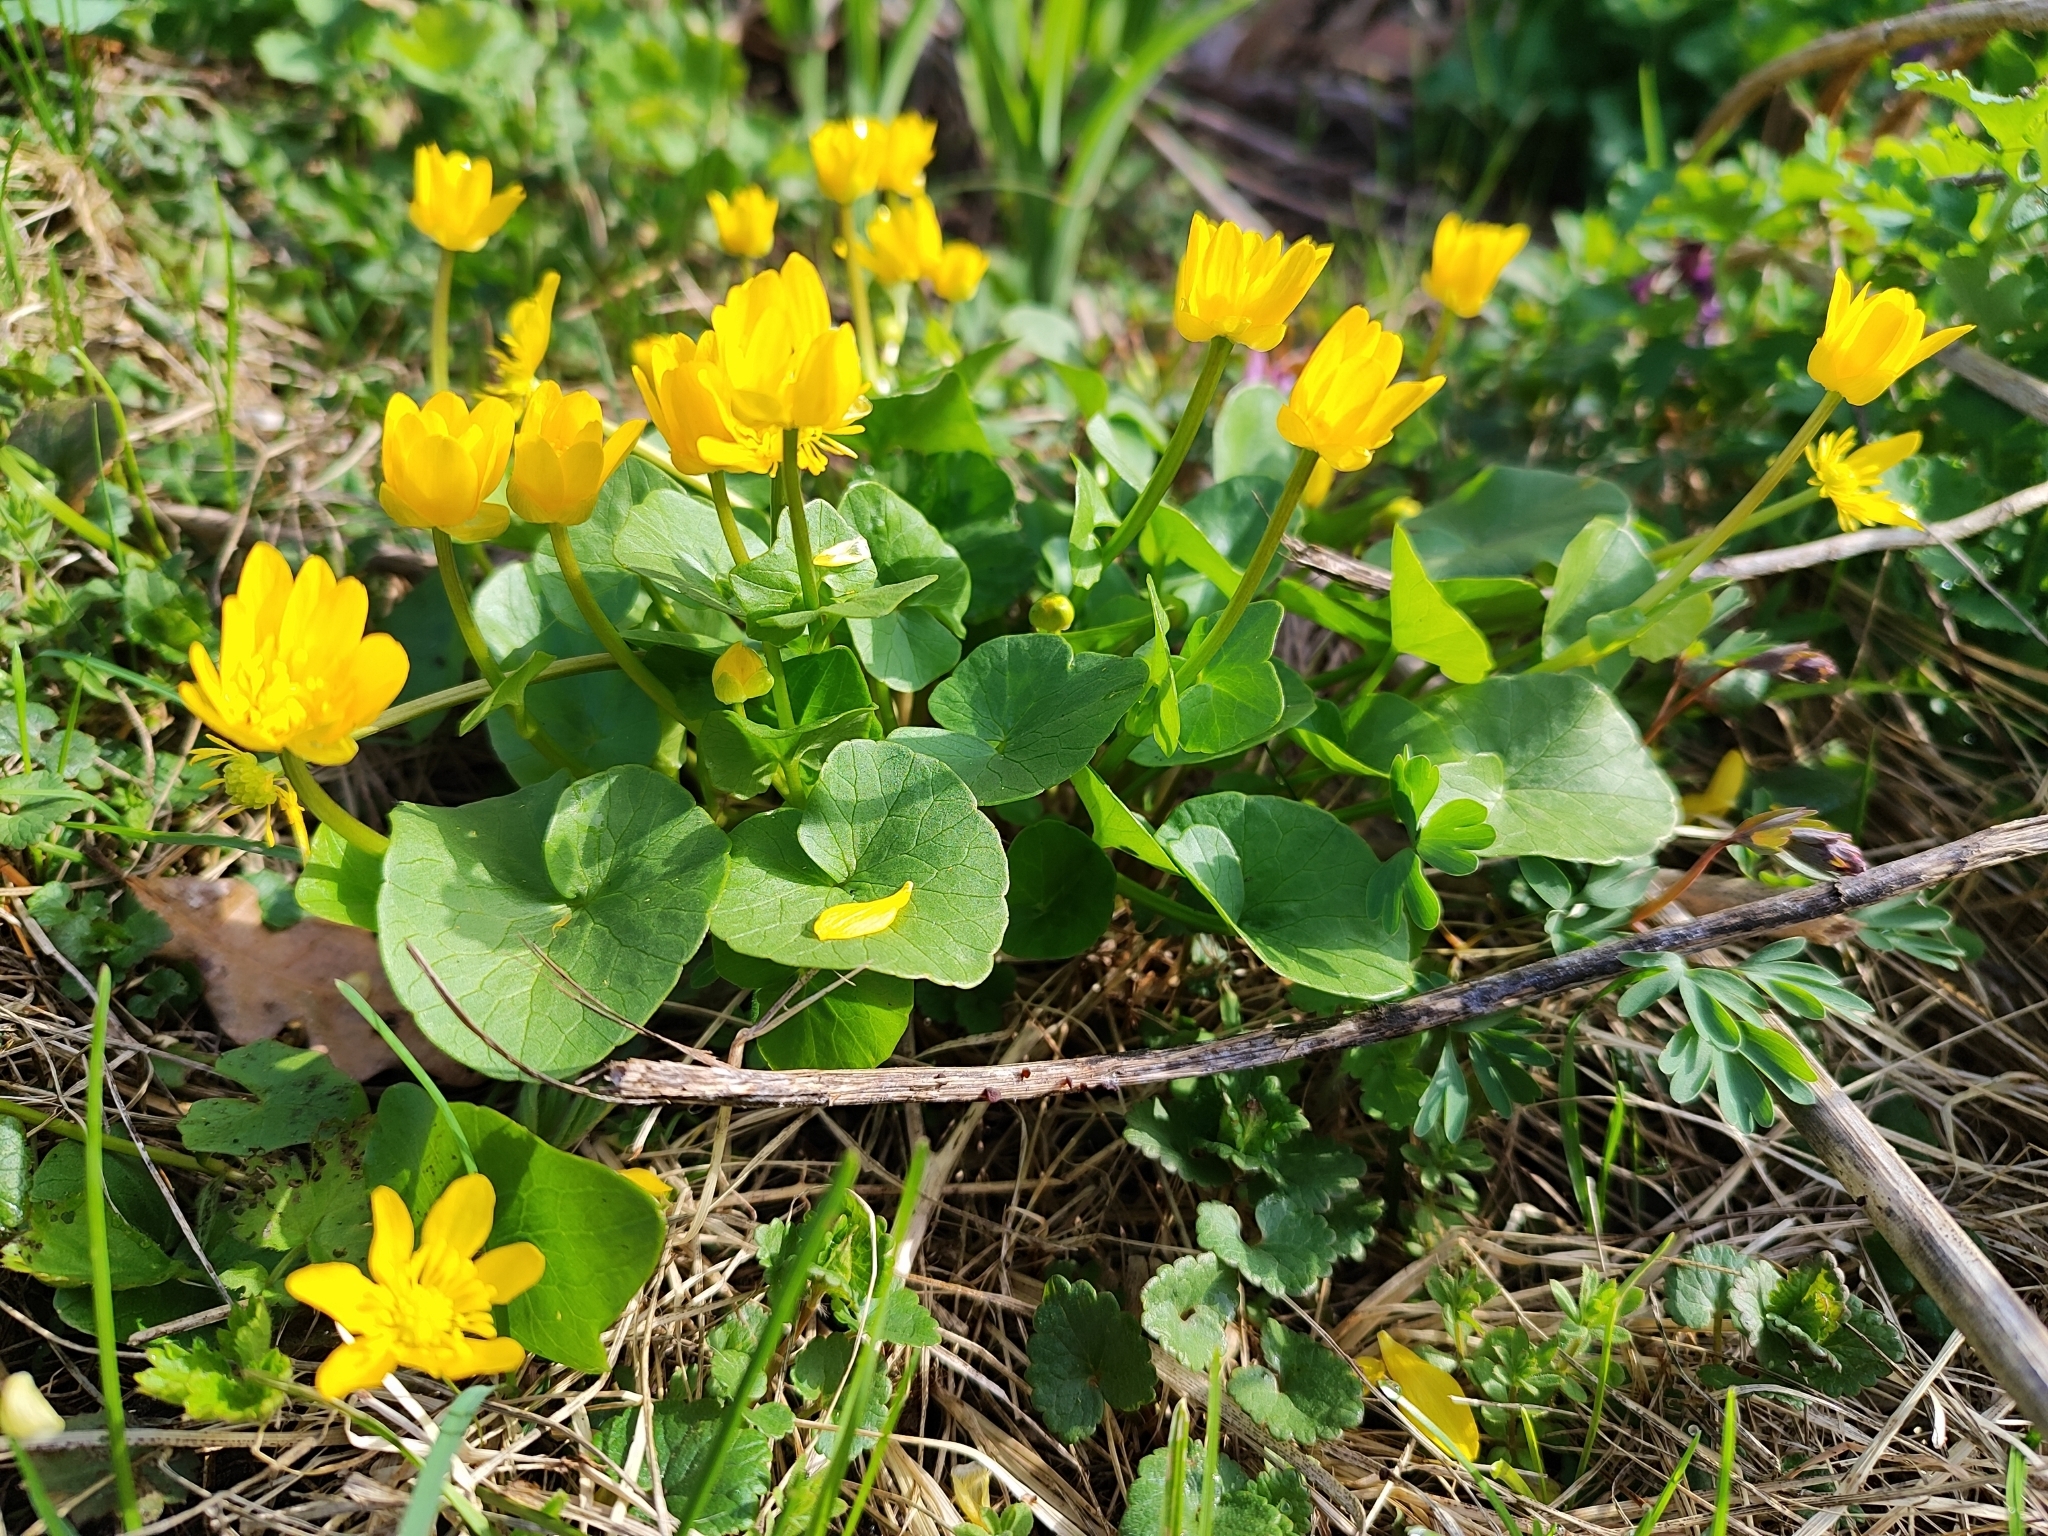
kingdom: Plantae
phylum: Tracheophyta
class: Magnoliopsida
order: Ranunculales
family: Ranunculaceae
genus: Ficaria
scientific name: Ficaria verna
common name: Lesser celandine
